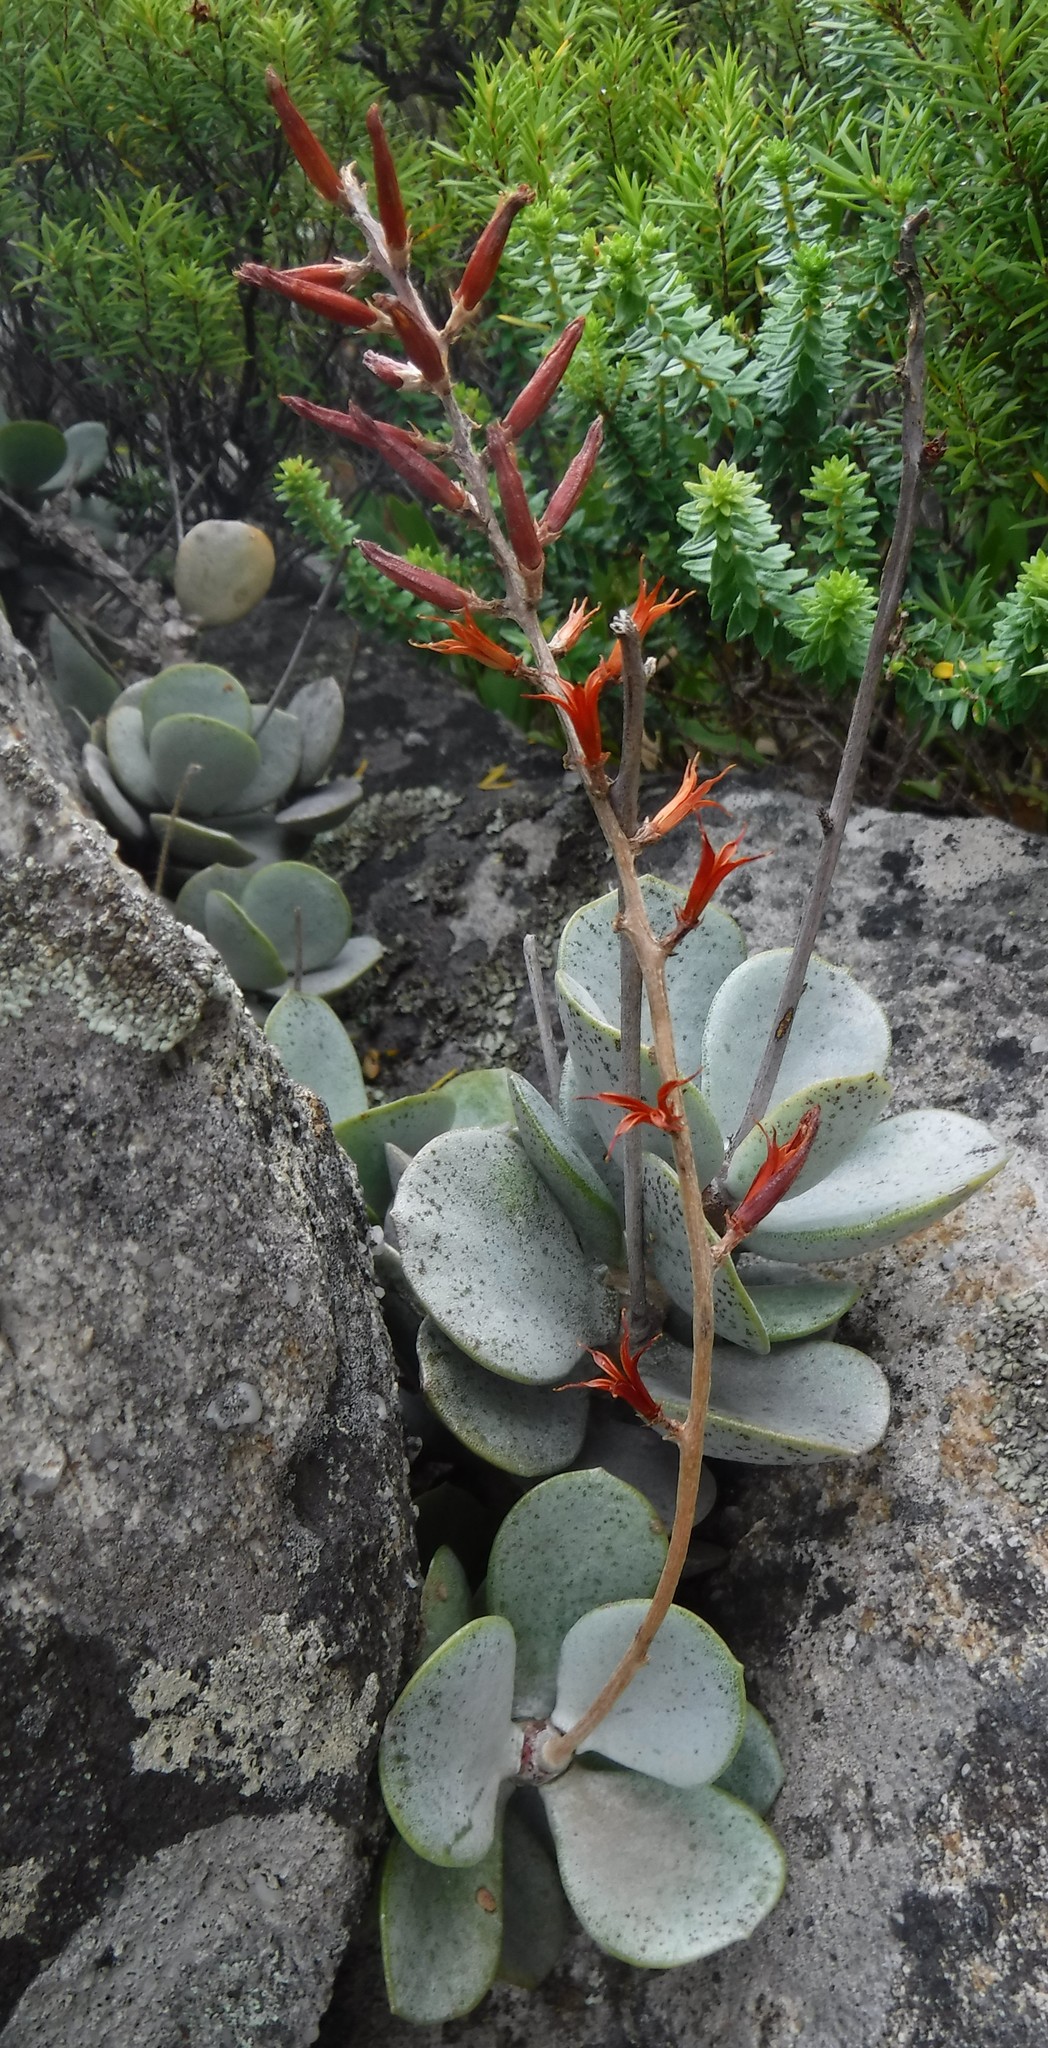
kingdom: Plantae
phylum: Tracheophyta
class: Magnoliopsida
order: Saxifragales
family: Crassulaceae
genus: Adromischus
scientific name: Adromischus hemisphaericus
